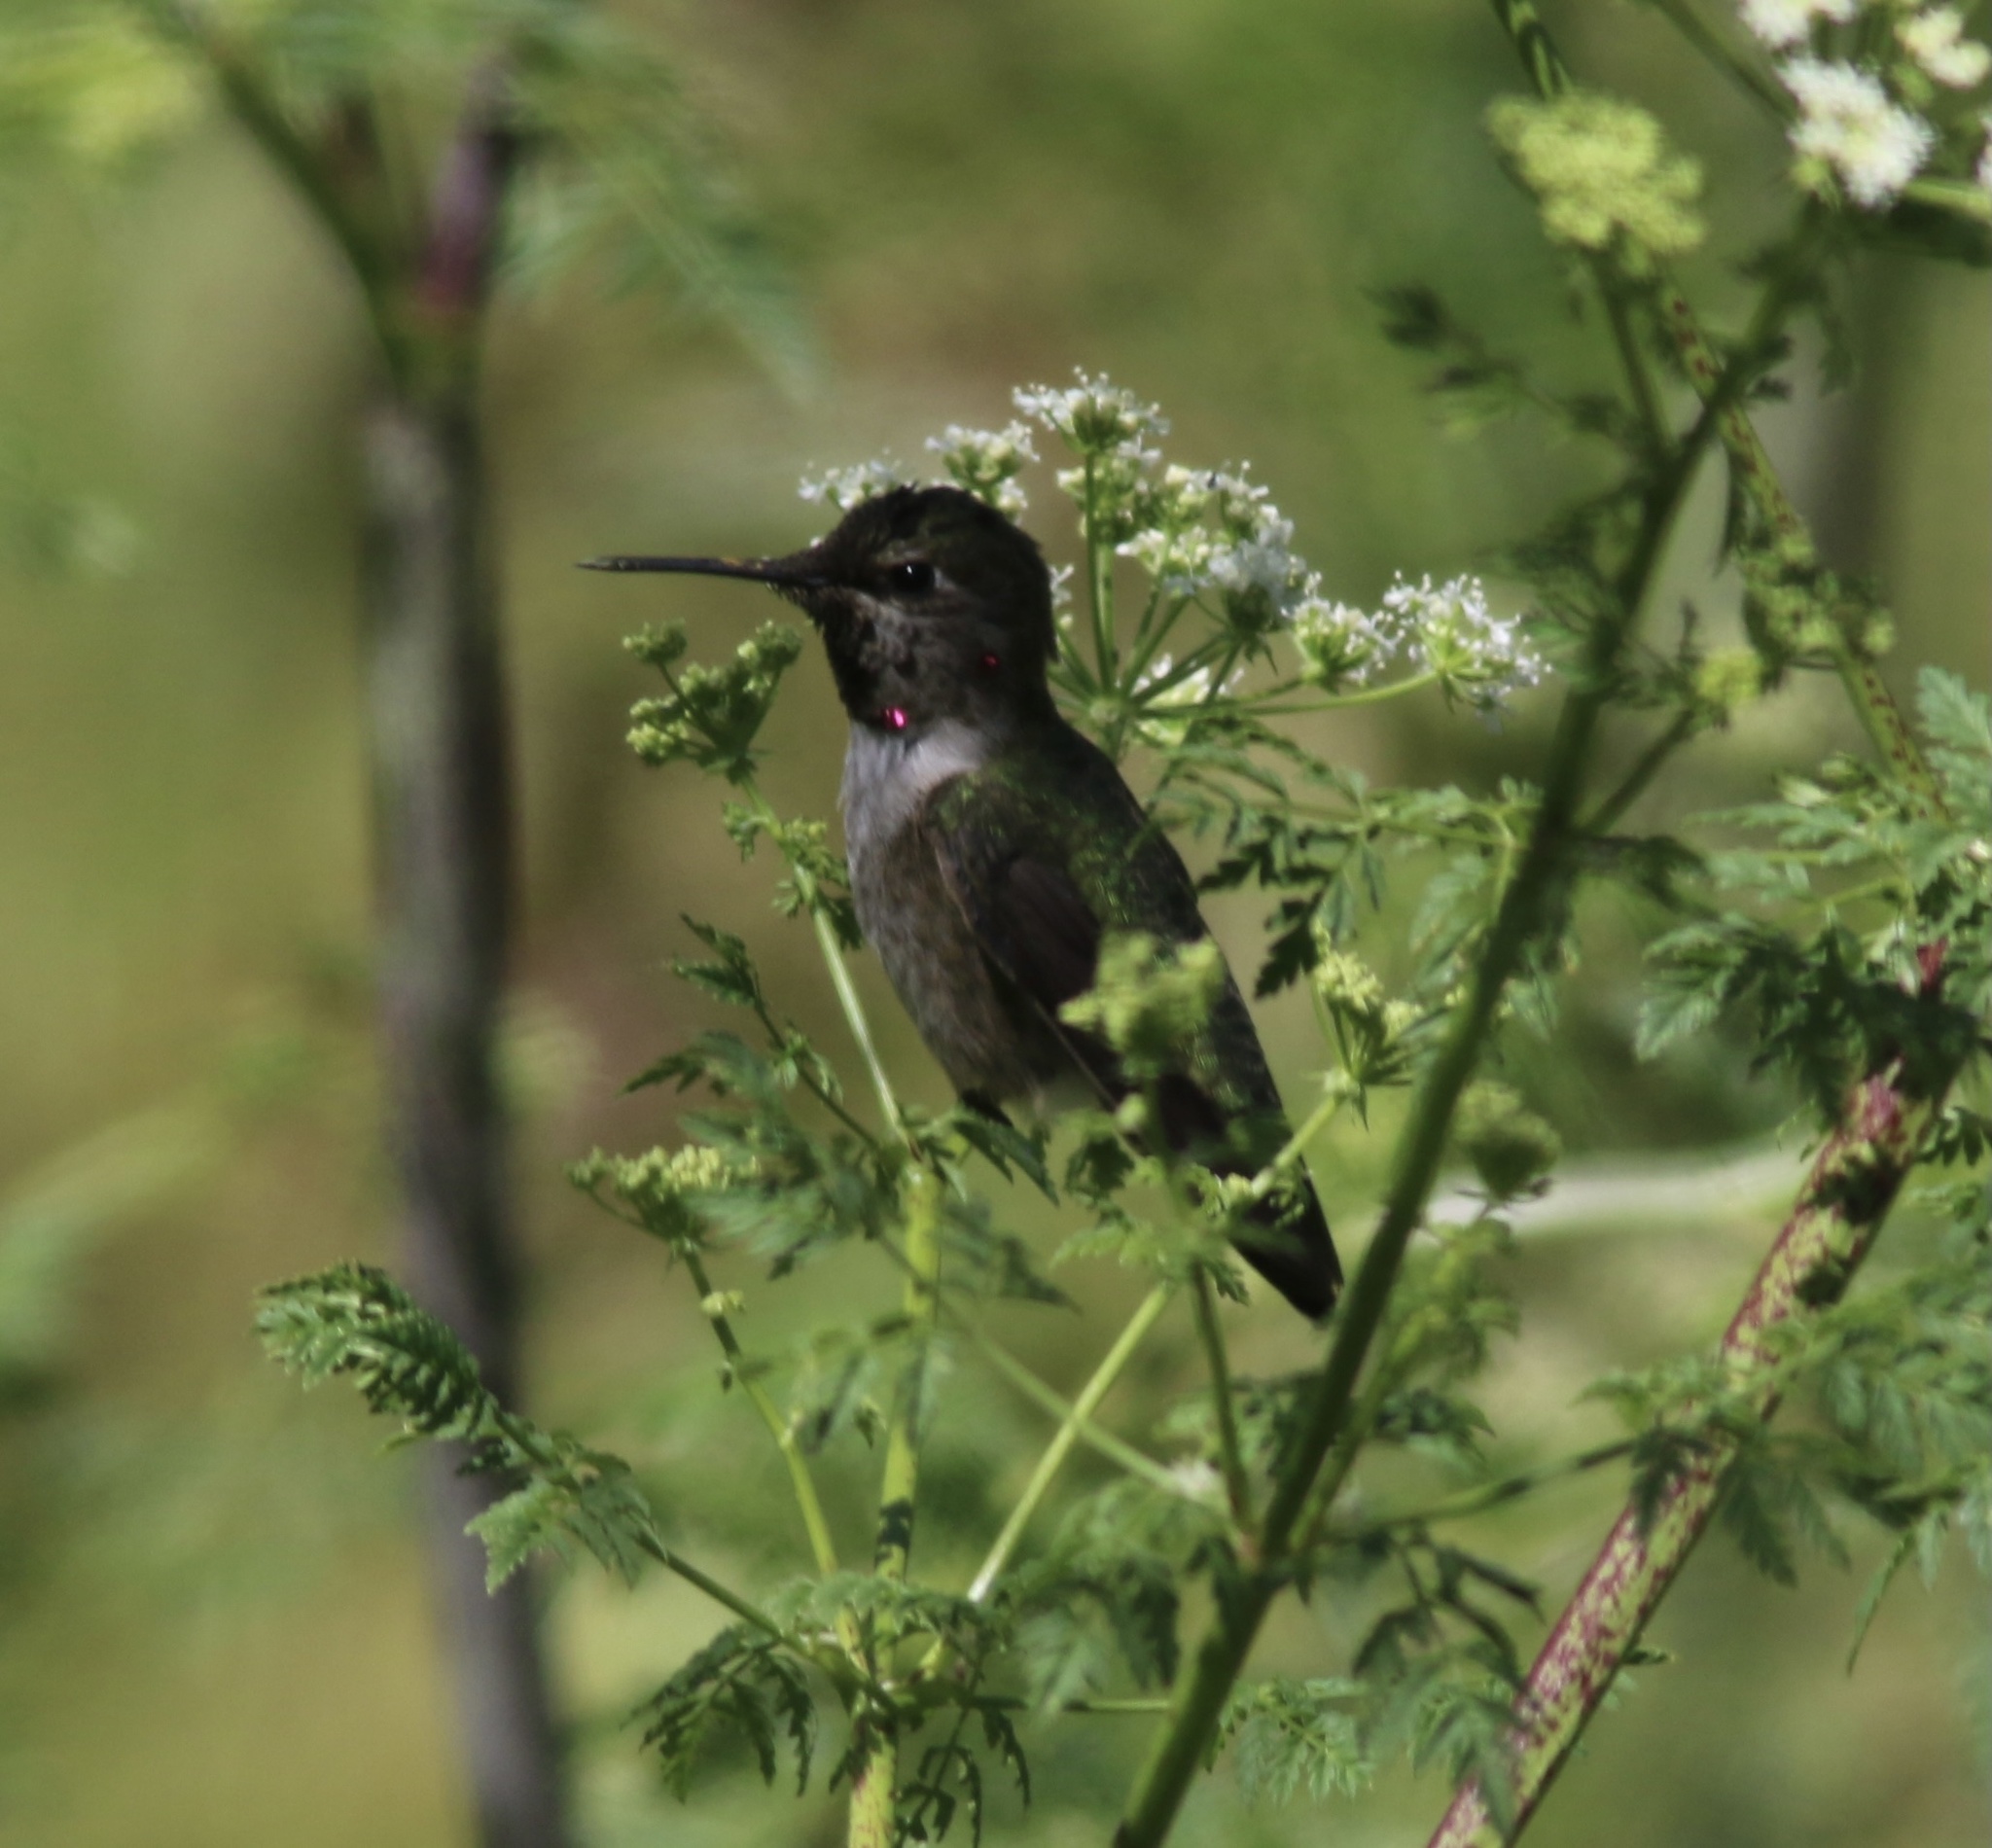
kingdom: Animalia
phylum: Chordata
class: Aves
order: Apodiformes
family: Trochilidae
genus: Calypte
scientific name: Calypte anna
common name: Anna's hummingbird
